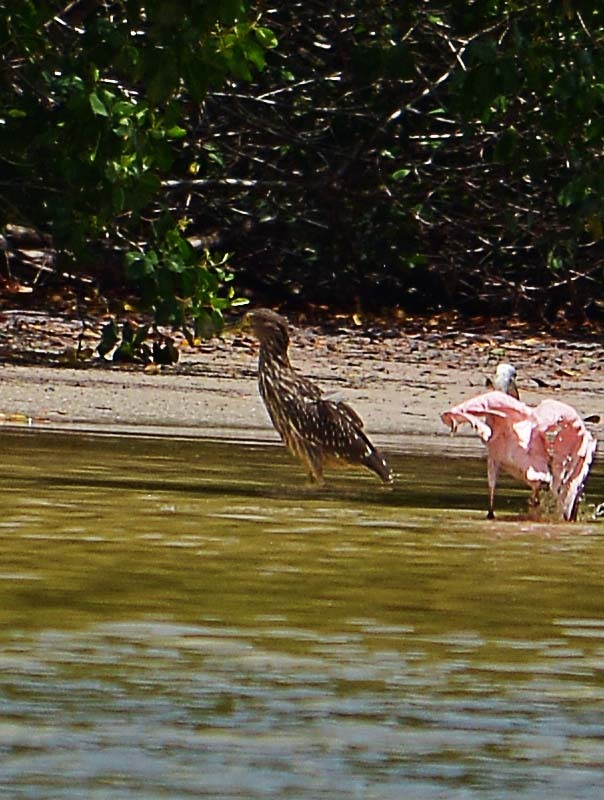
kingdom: Animalia
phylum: Chordata
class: Aves
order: Pelecaniformes
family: Ardeidae
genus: Nycticorax
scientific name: Nycticorax nycticorax
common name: Black-crowned night heron
